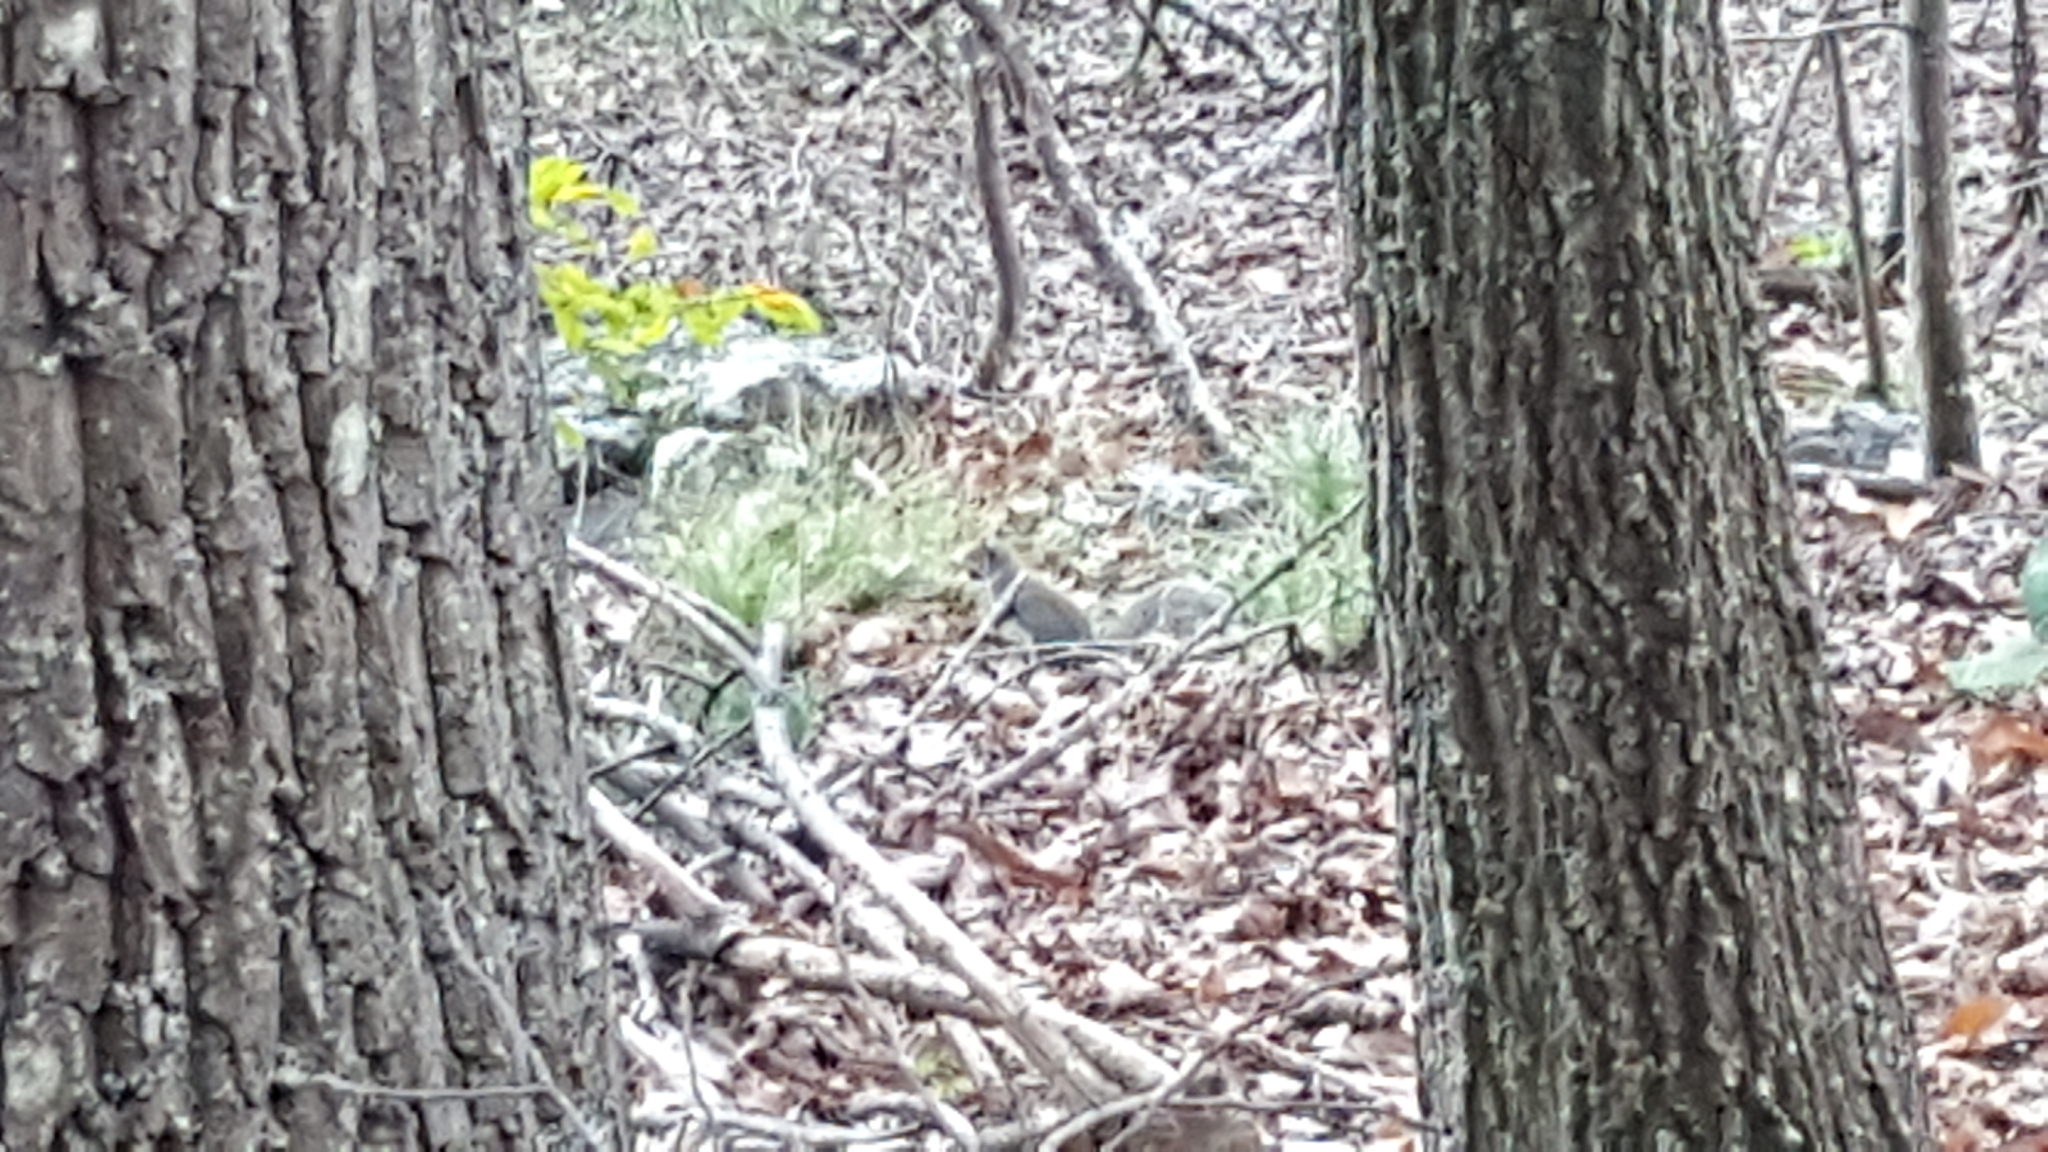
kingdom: Animalia
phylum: Chordata
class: Mammalia
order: Rodentia
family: Sciuridae
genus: Sciurus
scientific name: Sciurus carolinensis
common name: Eastern gray squirrel
